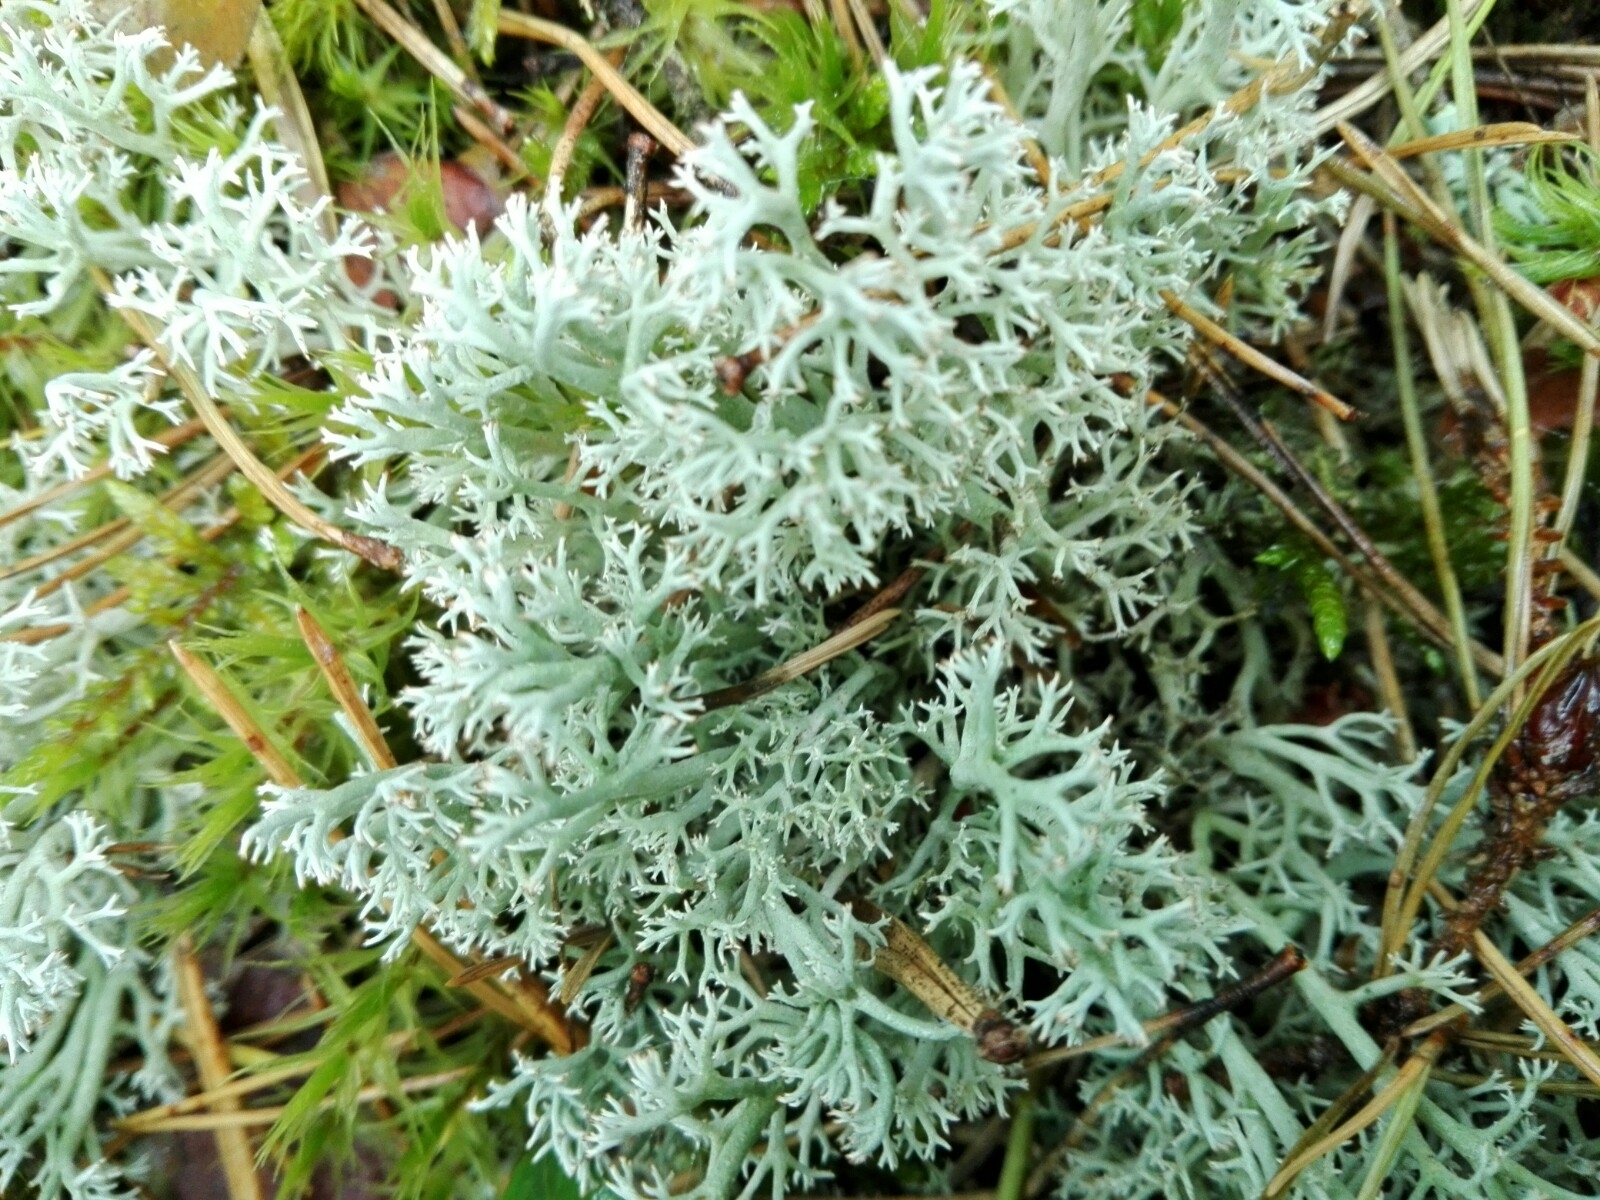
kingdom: Fungi
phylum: Ascomycota
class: Lecanoromycetes
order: Lecanorales
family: Cladoniaceae
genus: Cladonia
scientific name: Cladonia arbuscula
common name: Reindeer lichen
